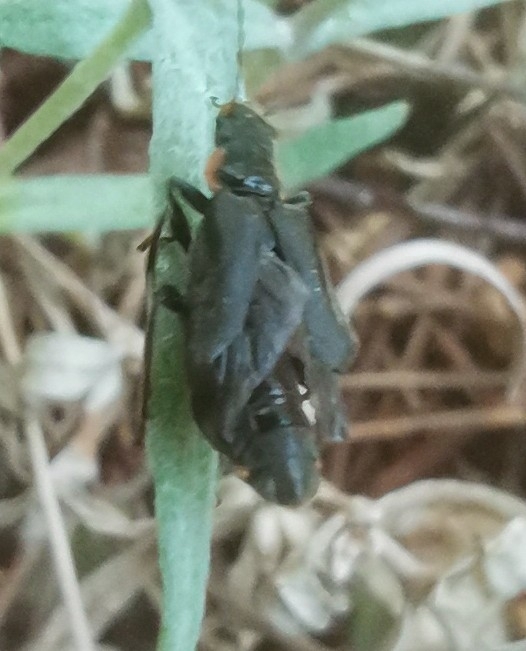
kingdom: Animalia
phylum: Arthropoda
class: Insecta
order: Coleoptera
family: Cantharidae
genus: Cantharis
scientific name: Cantharis
